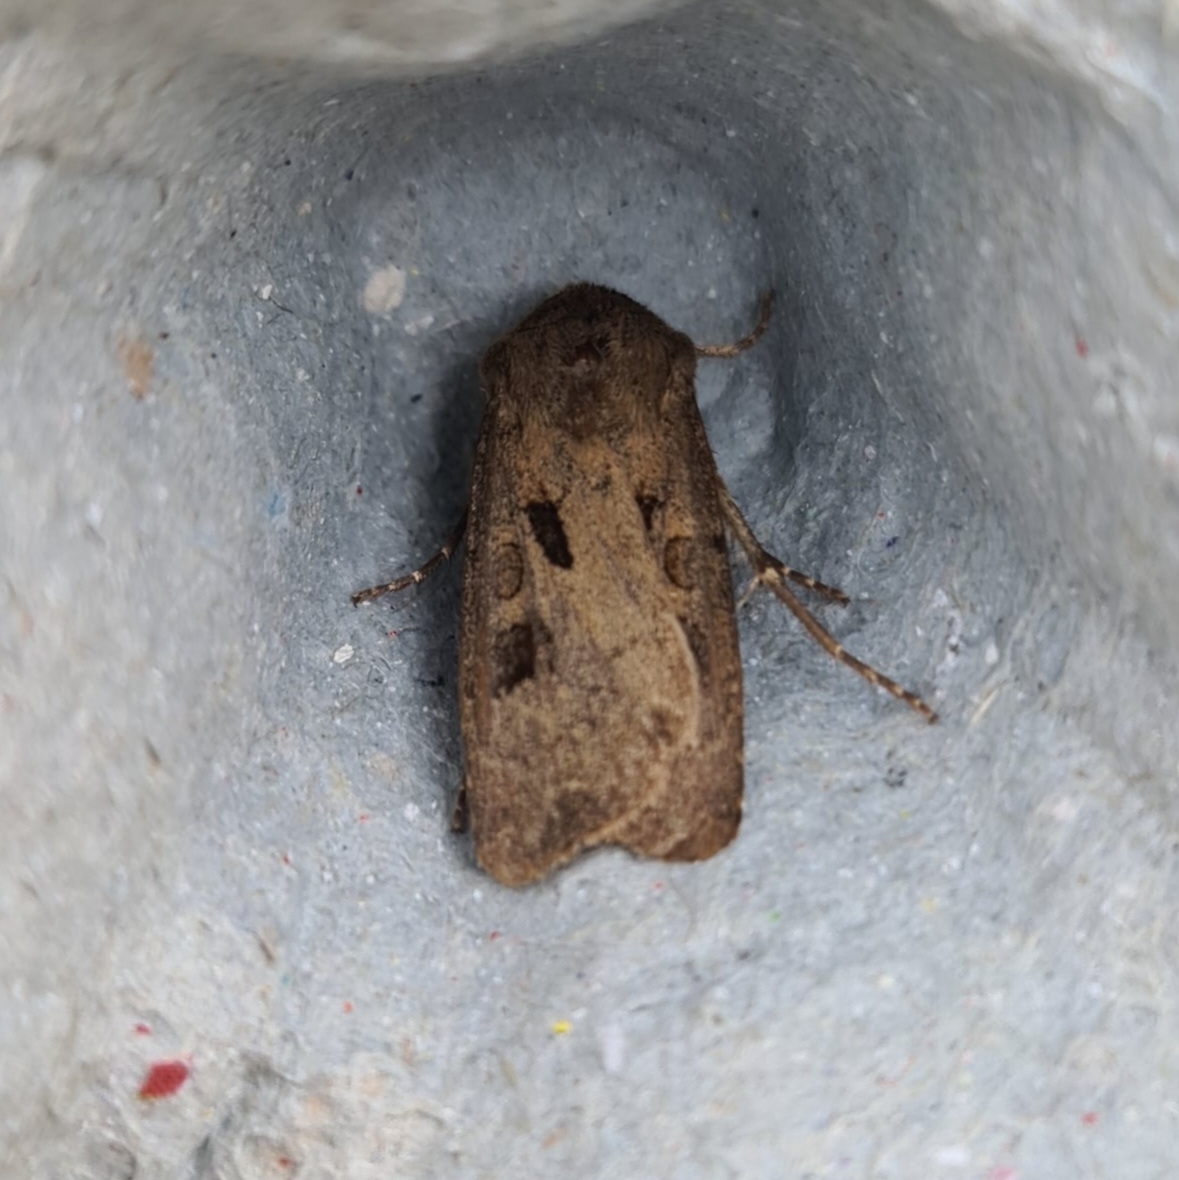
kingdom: Animalia
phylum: Arthropoda
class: Insecta
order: Lepidoptera
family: Noctuidae
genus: Agrotis
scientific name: Agrotis exclamationis
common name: Heart and dart
